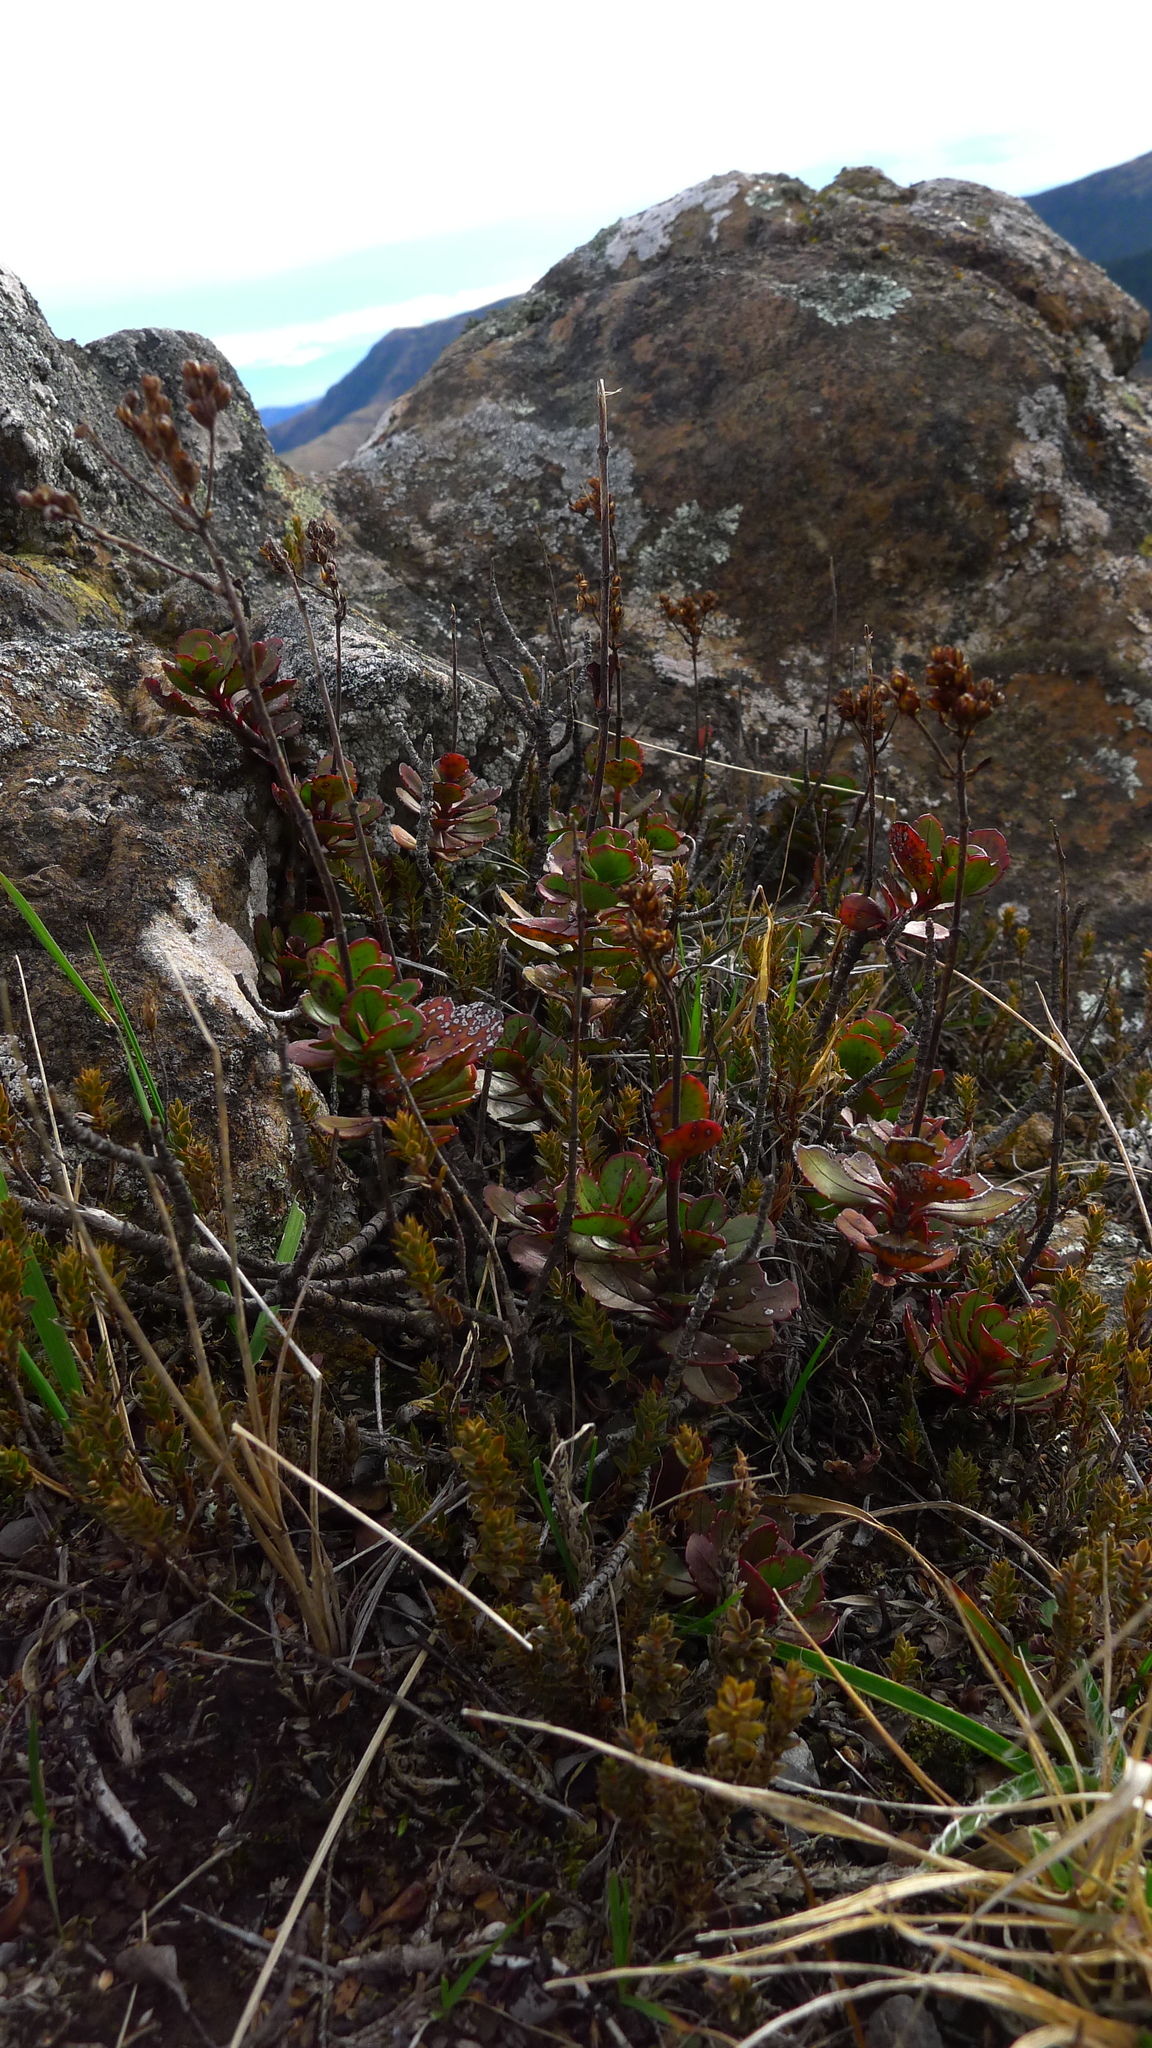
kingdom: Plantae
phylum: Tracheophyta
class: Magnoliopsida
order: Lamiales
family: Plantaginaceae
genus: Veronica
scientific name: Veronica lavaudiana
